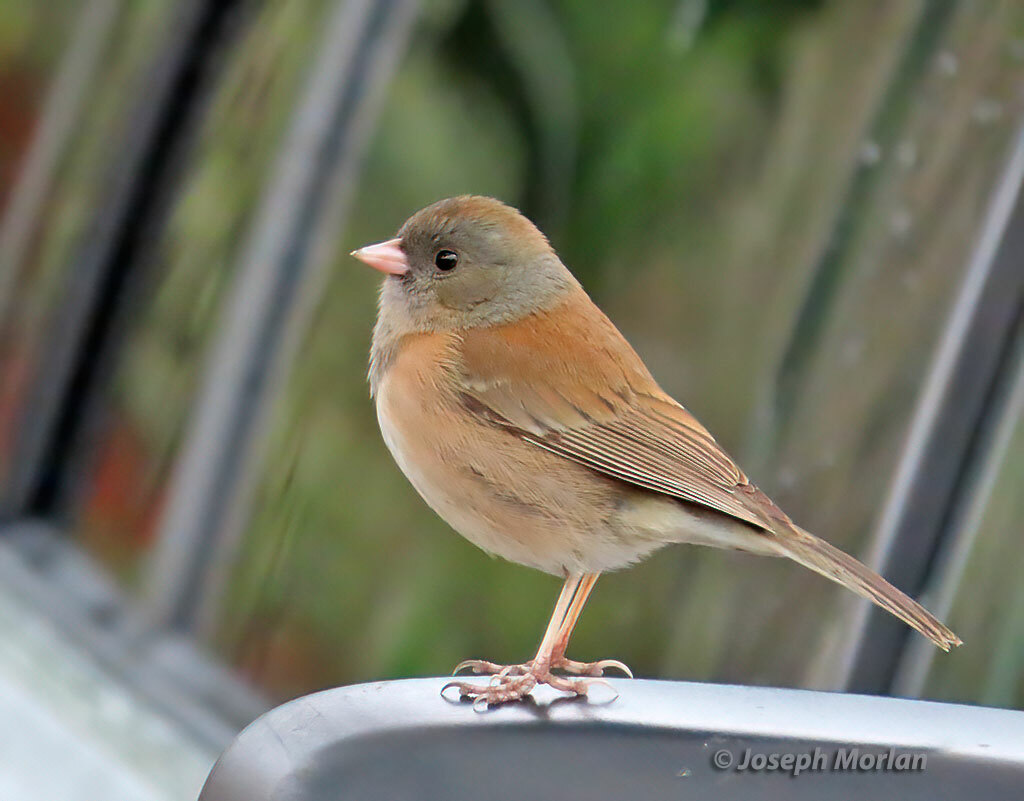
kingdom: Animalia
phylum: Chordata
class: Aves
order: Passeriformes
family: Passerellidae
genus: Junco
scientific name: Junco hyemalis
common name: Dark-eyed junco
